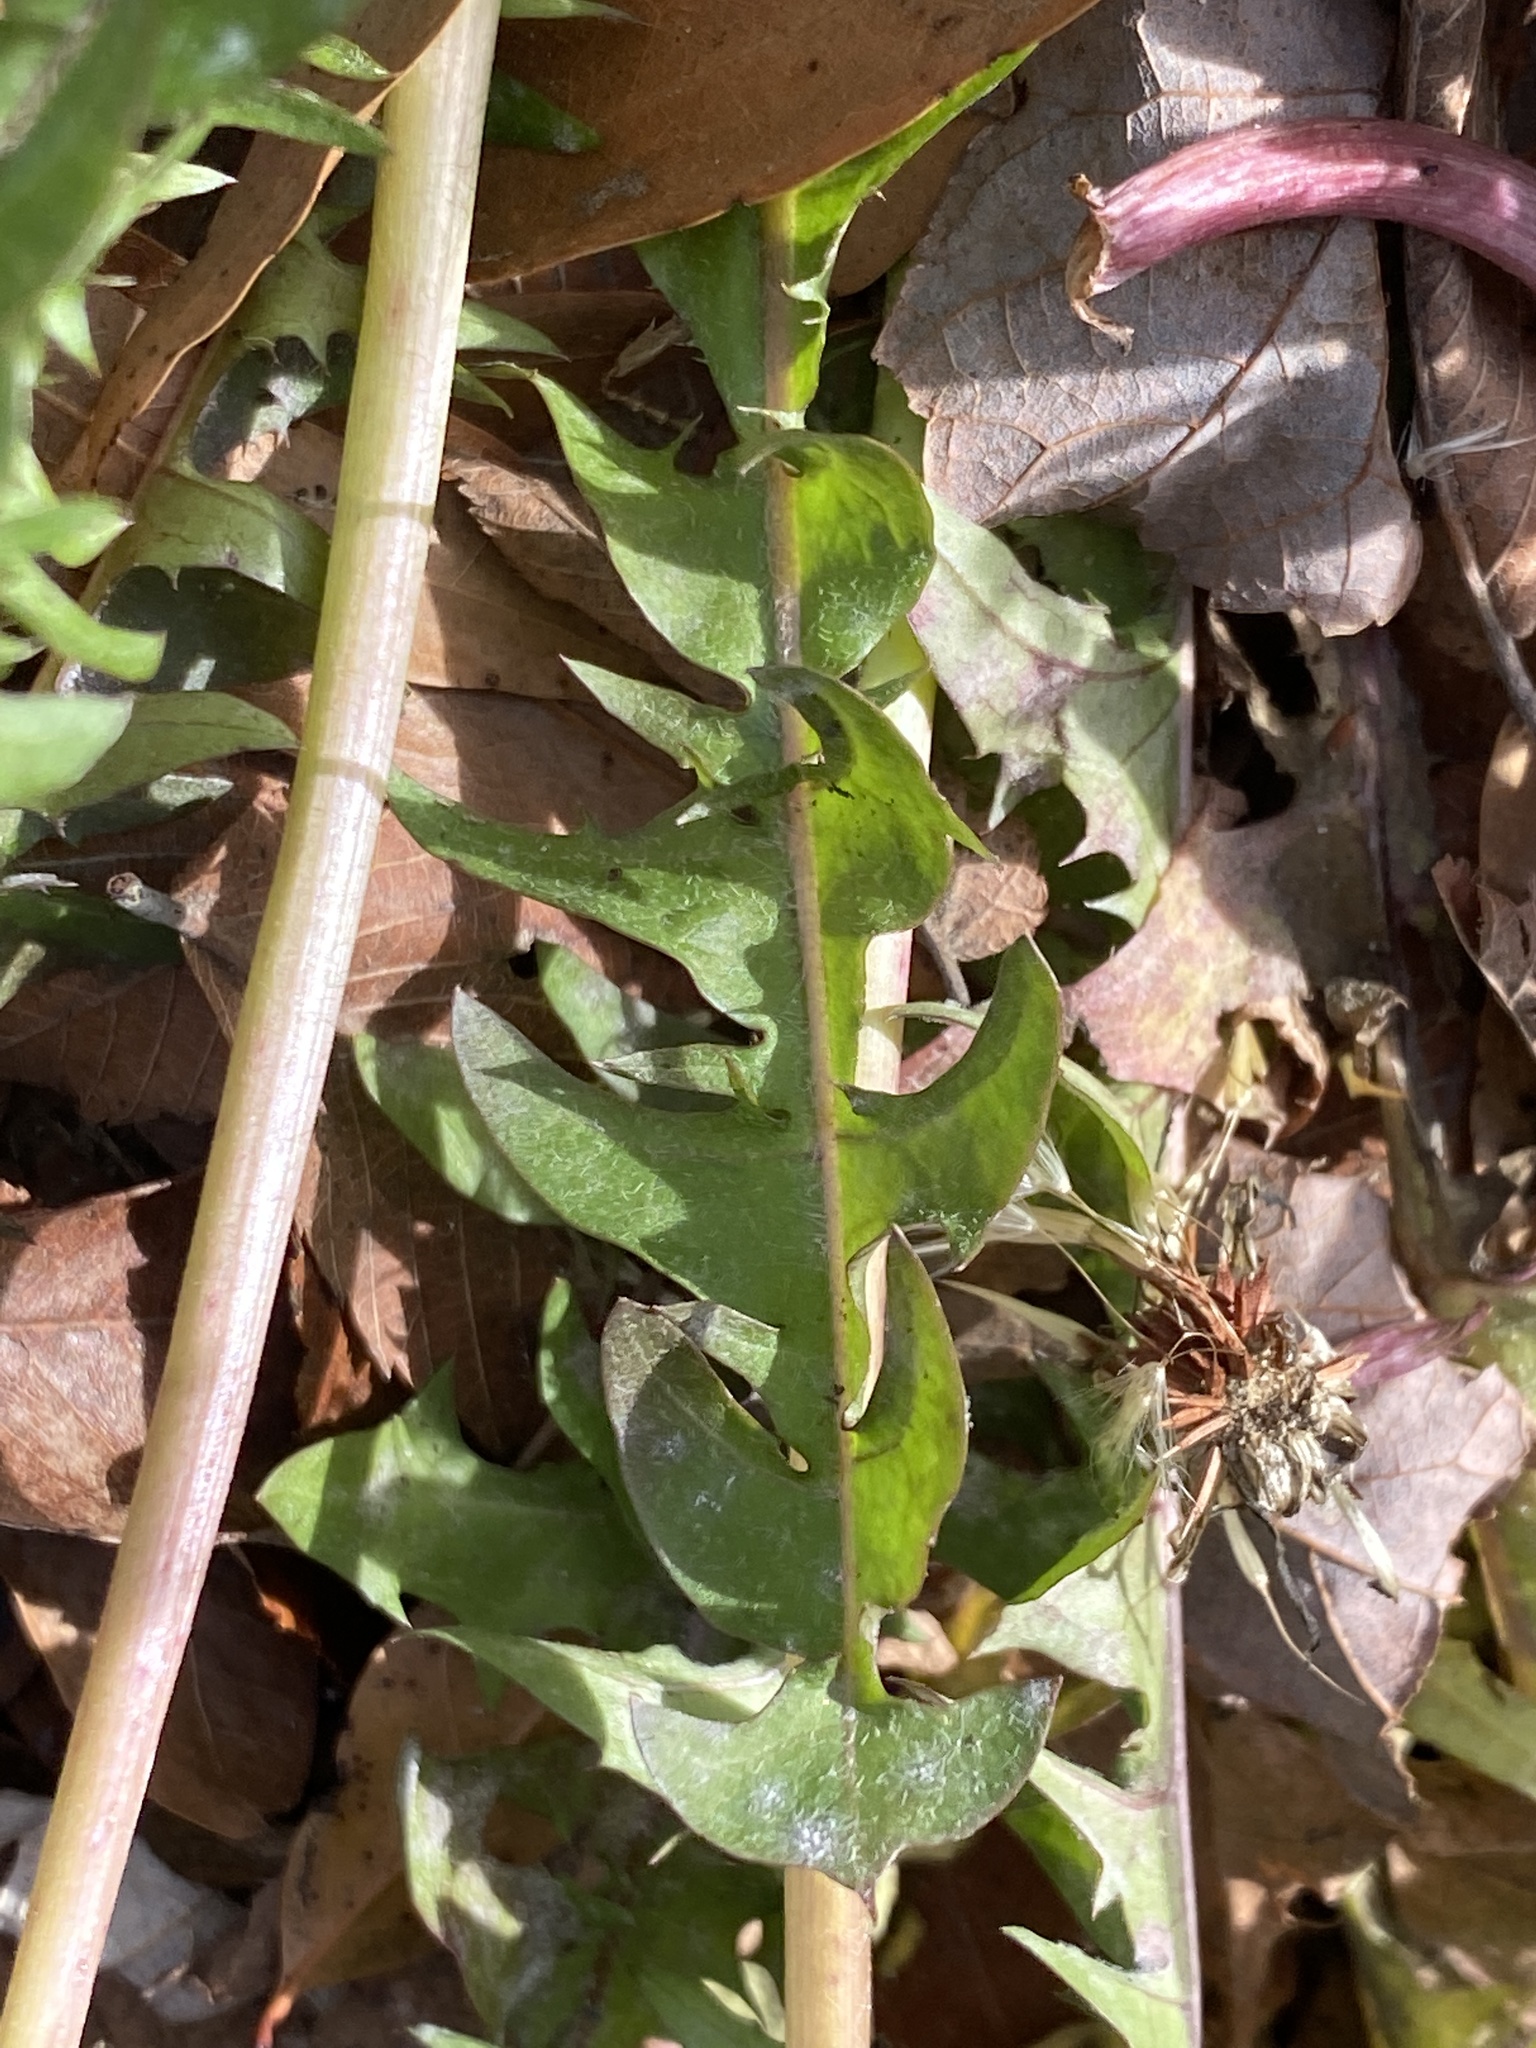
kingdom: Plantae
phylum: Tracheophyta
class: Magnoliopsida
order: Asterales
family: Asteraceae
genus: Taraxacum
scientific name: Taraxacum officinale
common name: Common dandelion
